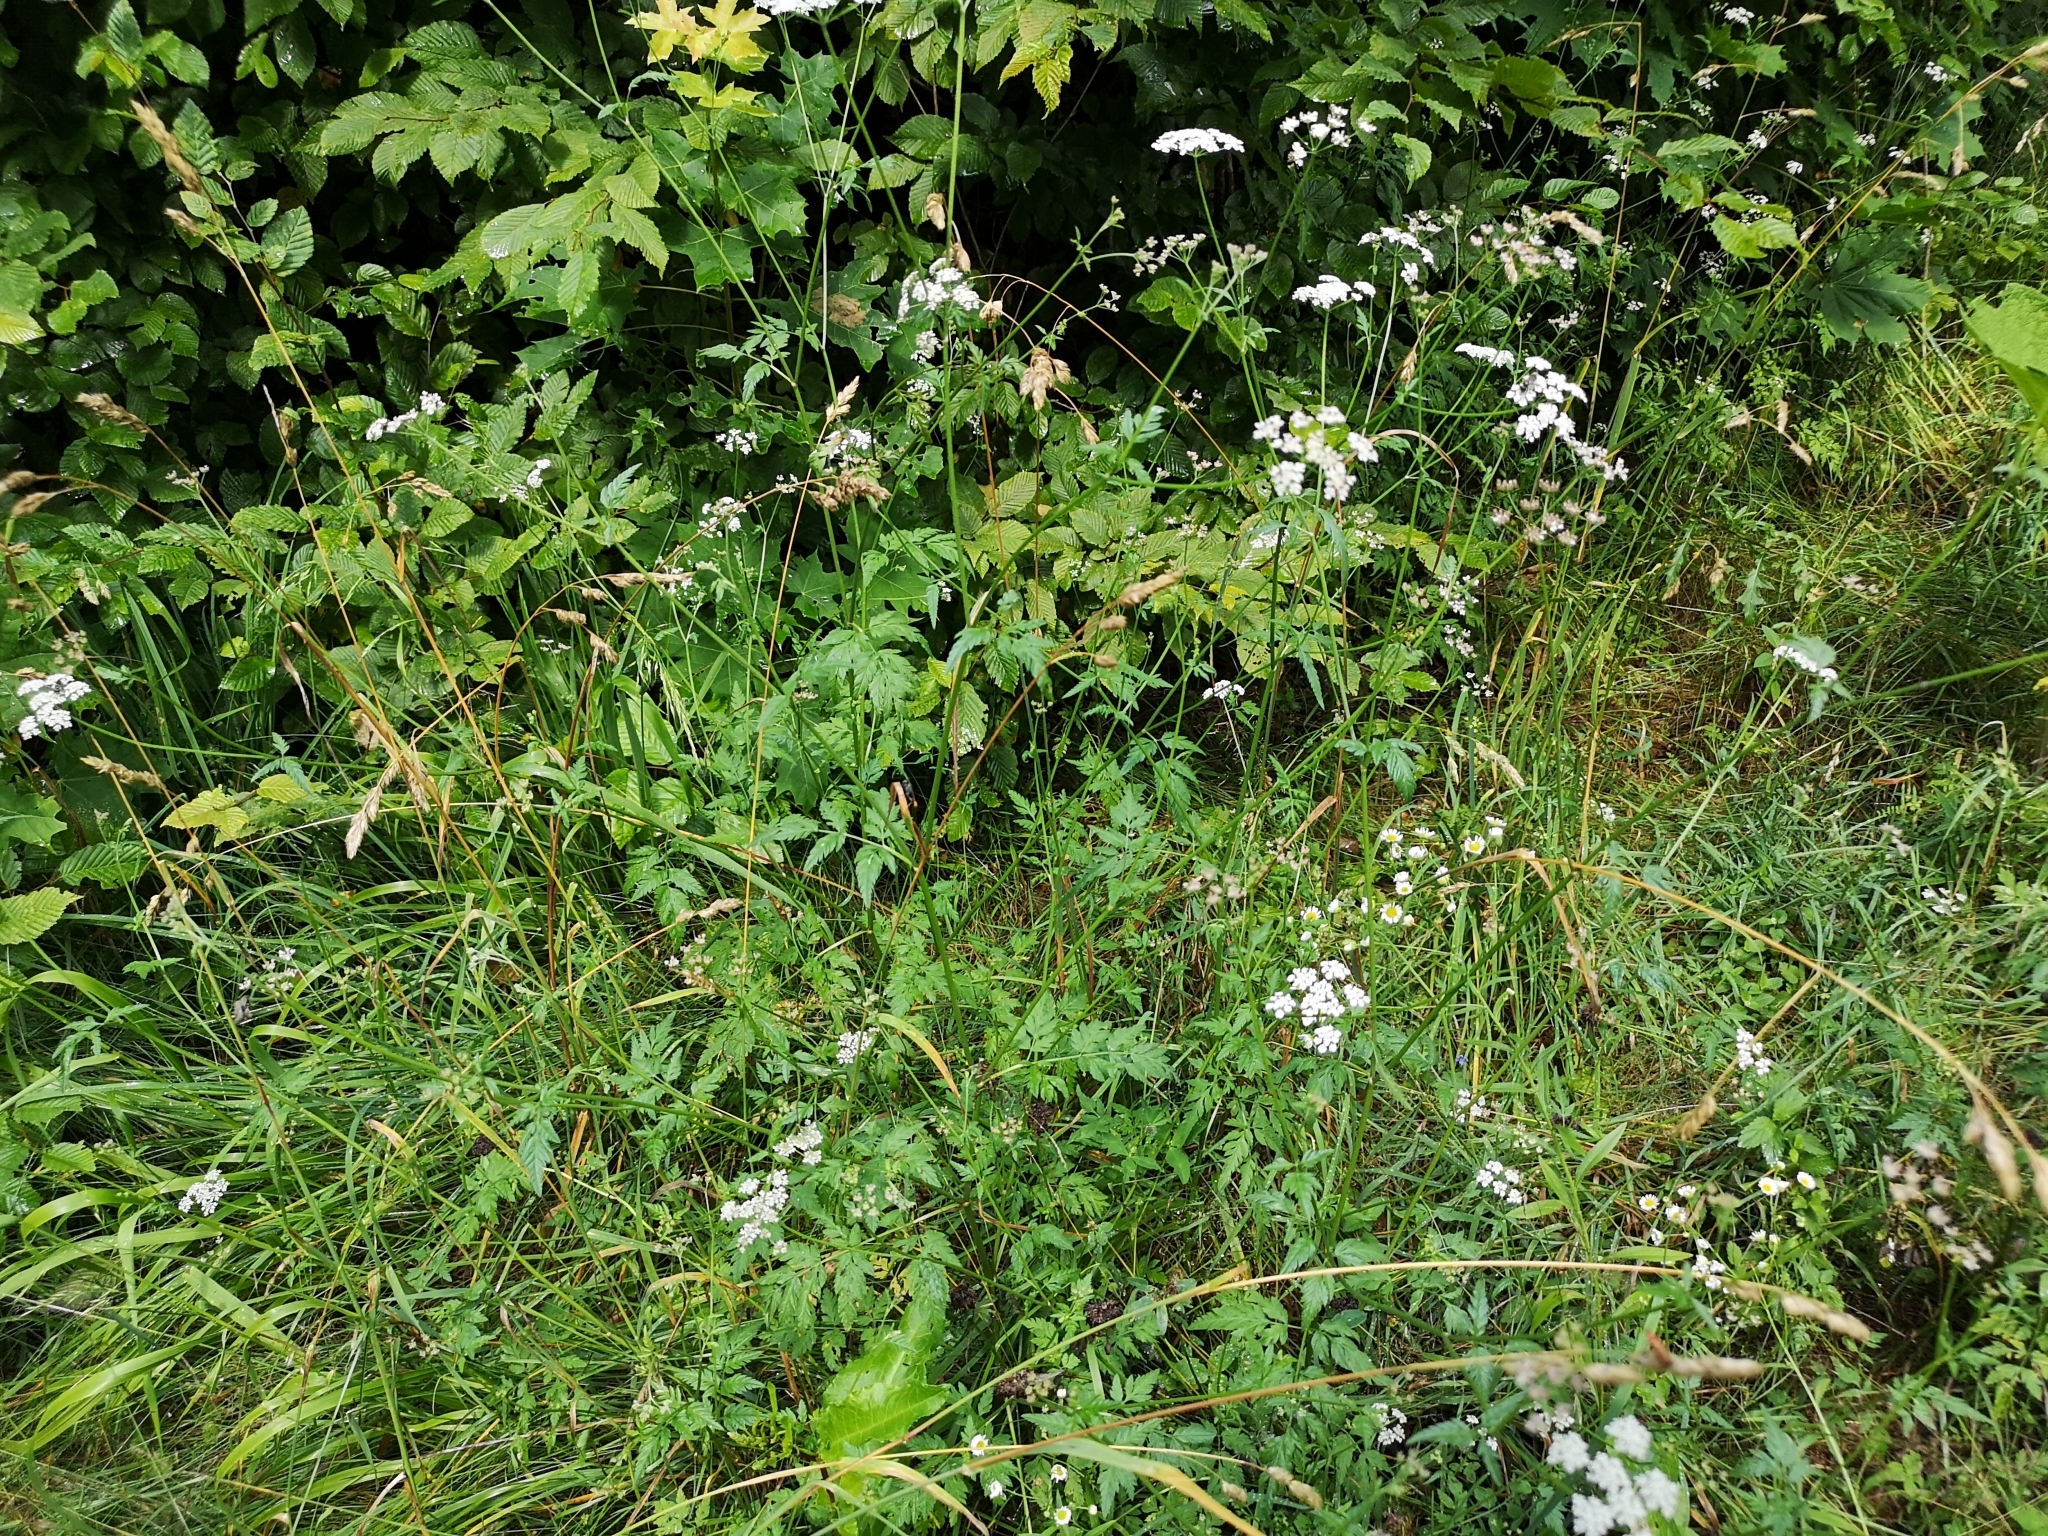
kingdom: Plantae
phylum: Tracheophyta
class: Magnoliopsida
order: Apiales
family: Apiaceae
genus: Torilis
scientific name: Torilis japonica
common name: Upright hedge-parsley
